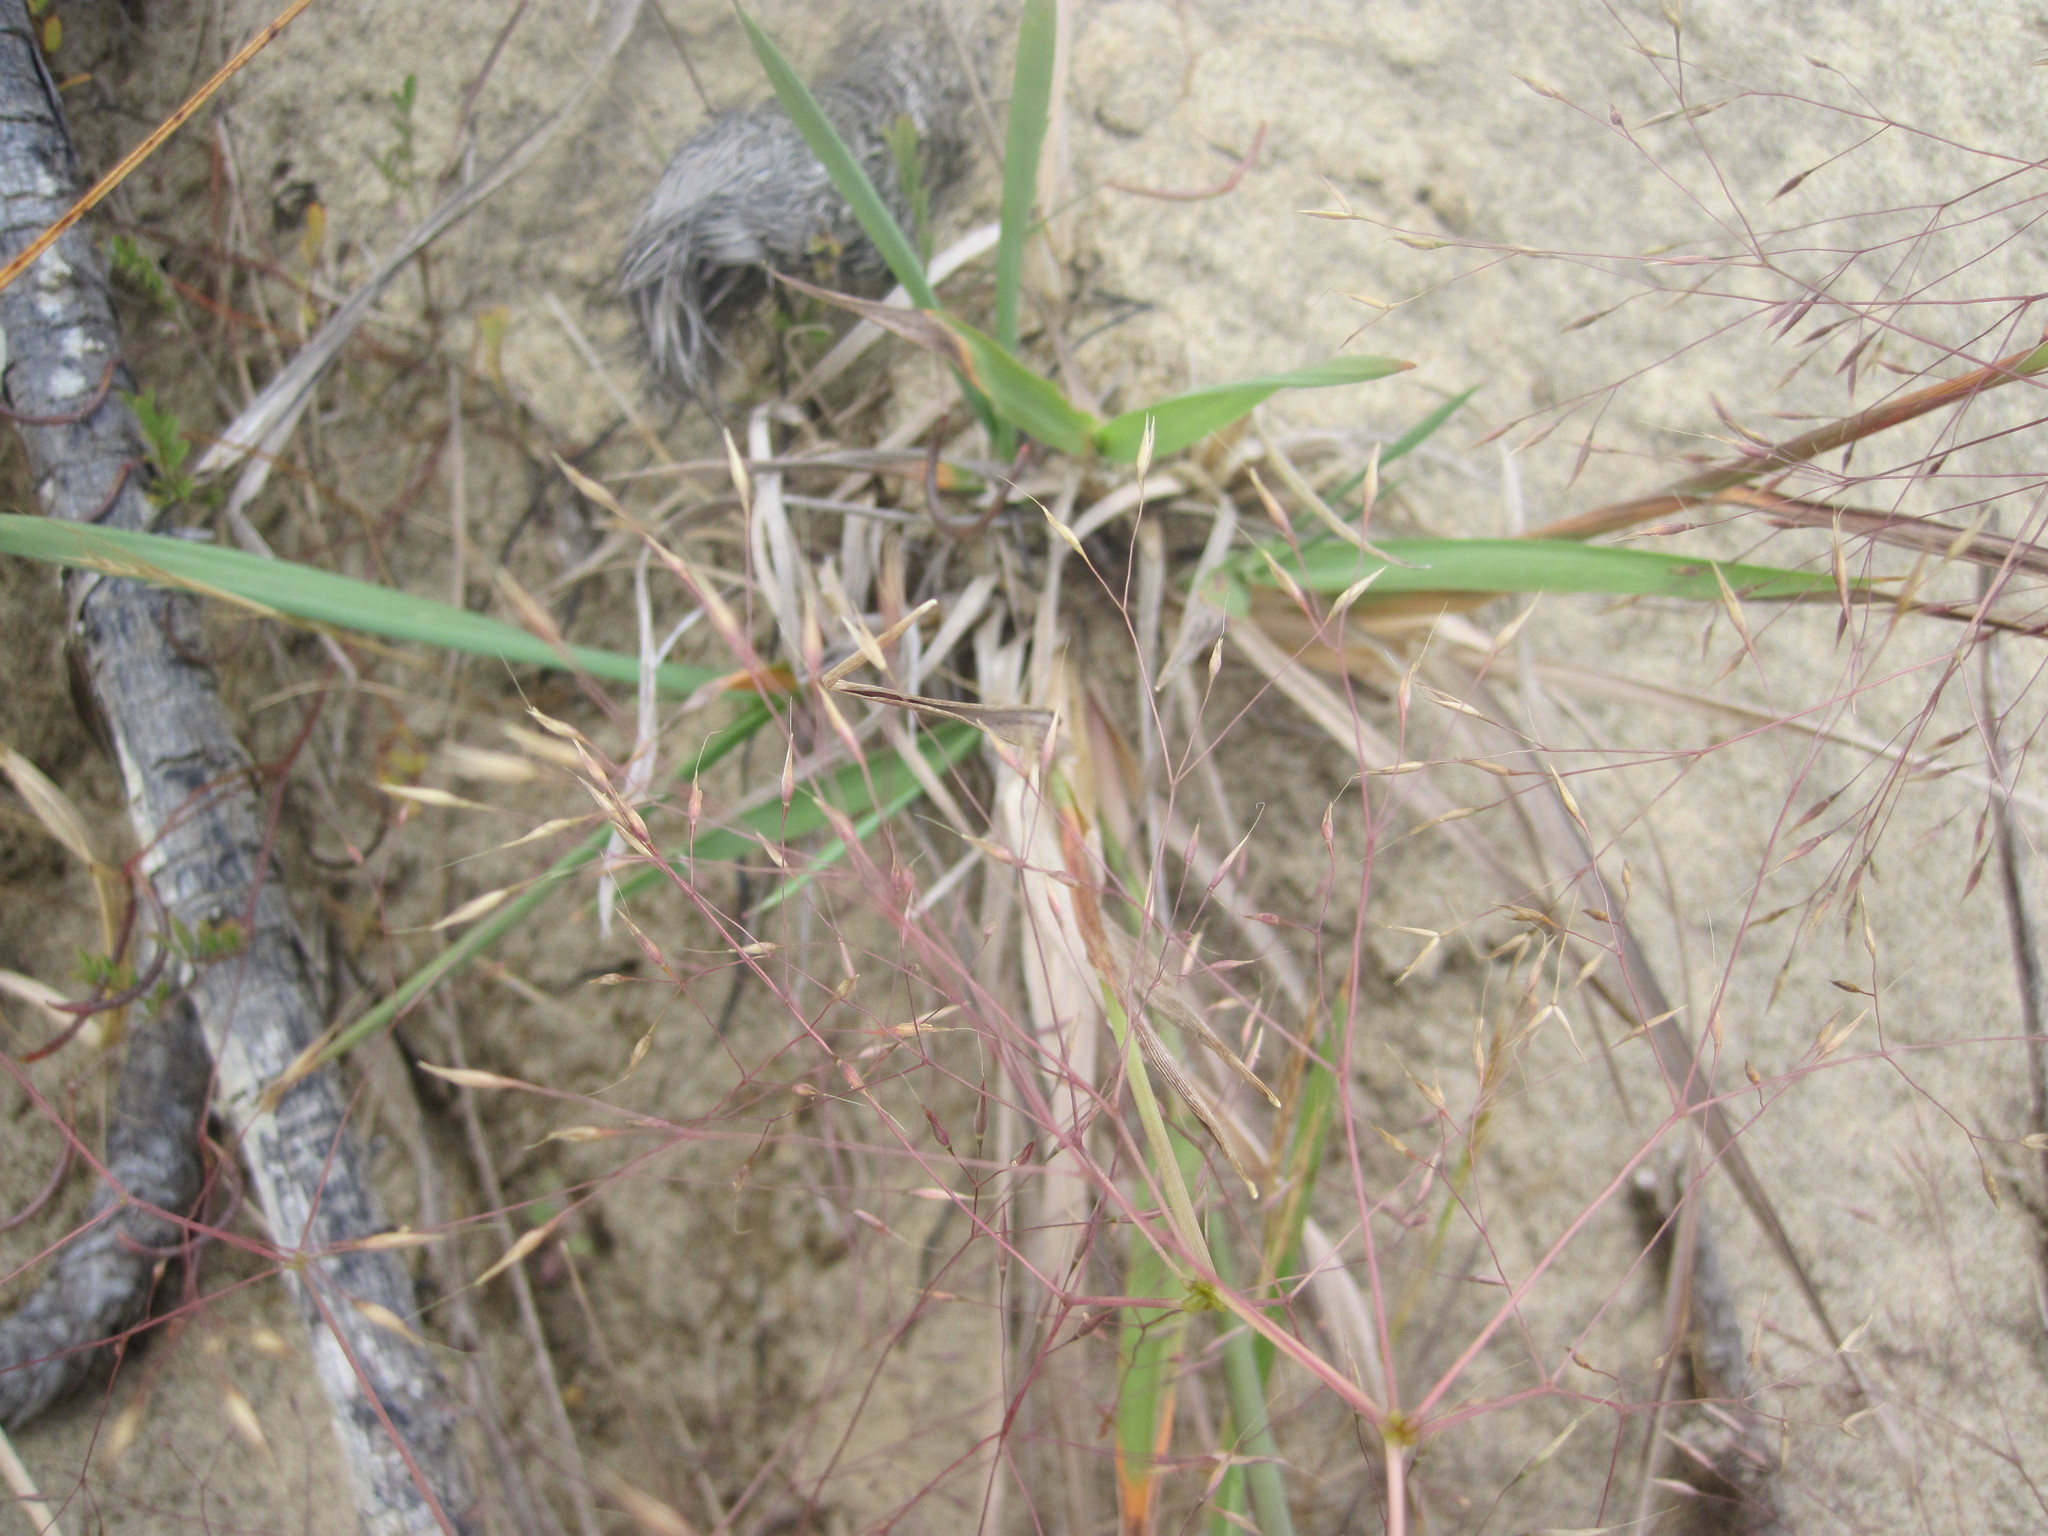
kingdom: Plantae
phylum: Tracheophyta
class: Liliopsida
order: Poales
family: Poaceae
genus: Lachnagrostis
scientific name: Lachnagrostis billardierei
